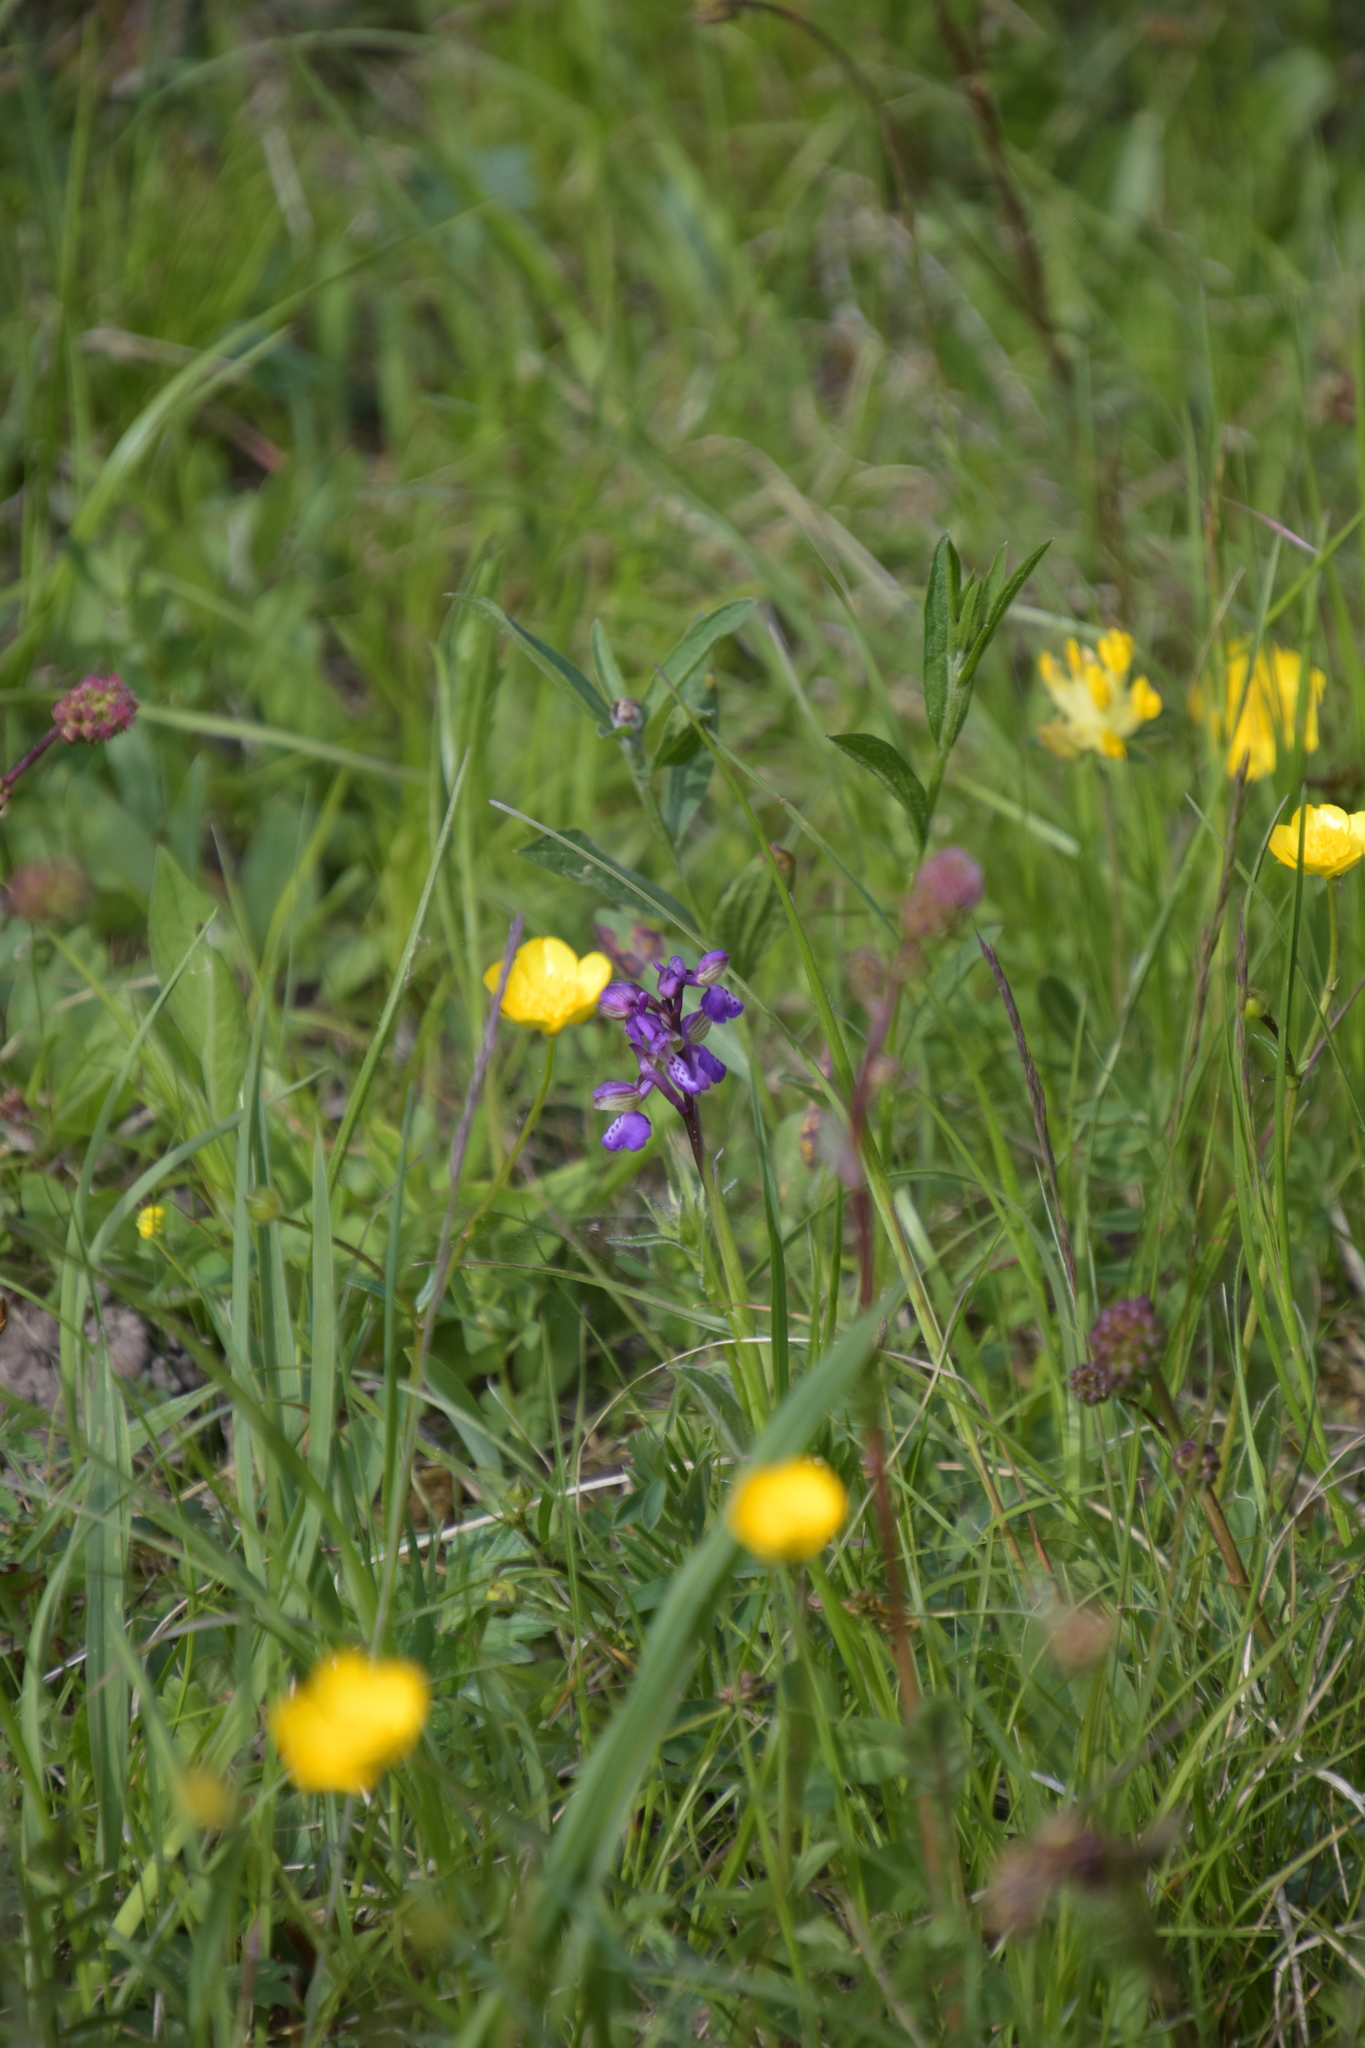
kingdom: Plantae
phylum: Tracheophyta
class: Liliopsida
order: Asparagales
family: Orchidaceae
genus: Anacamptis
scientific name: Anacamptis morio
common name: Green-winged orchid
